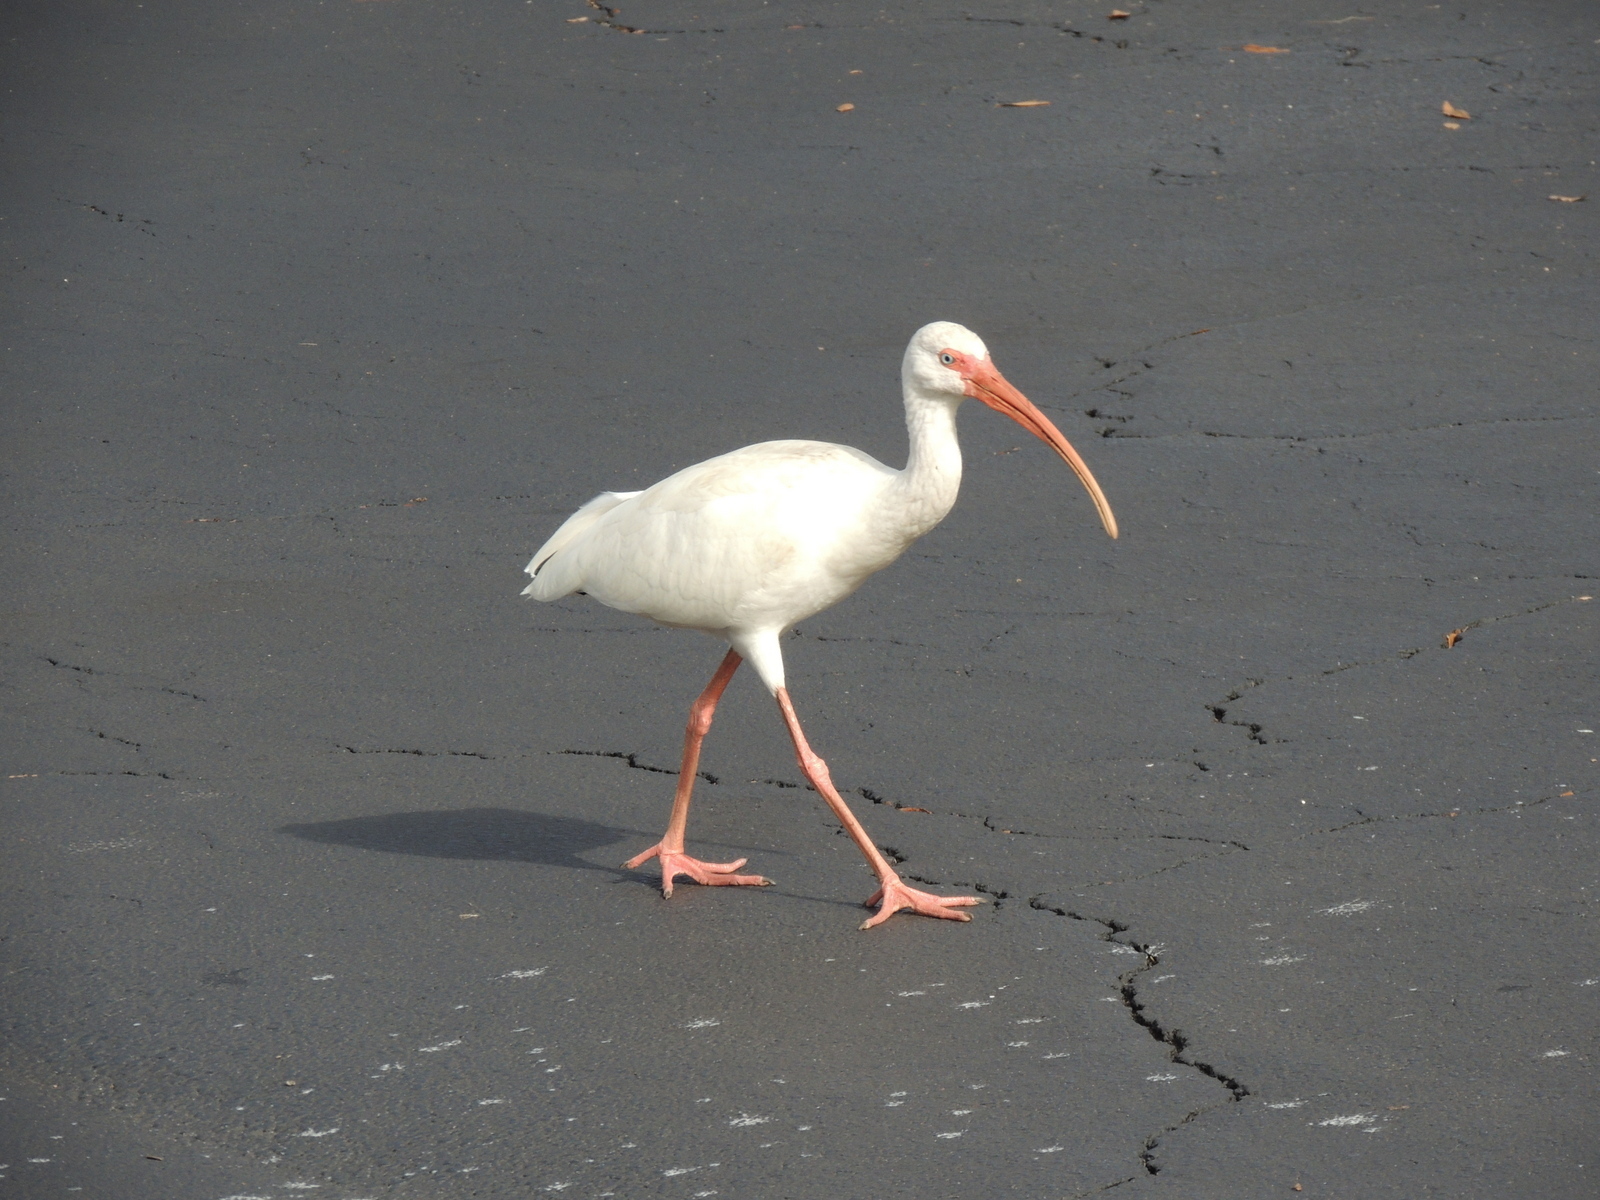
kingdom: Animalia
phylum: Chordata
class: Aves
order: Pelecaniformes
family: Threskiornithidae
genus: Eudocimus
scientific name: Eudocimus albus
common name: White ibis
